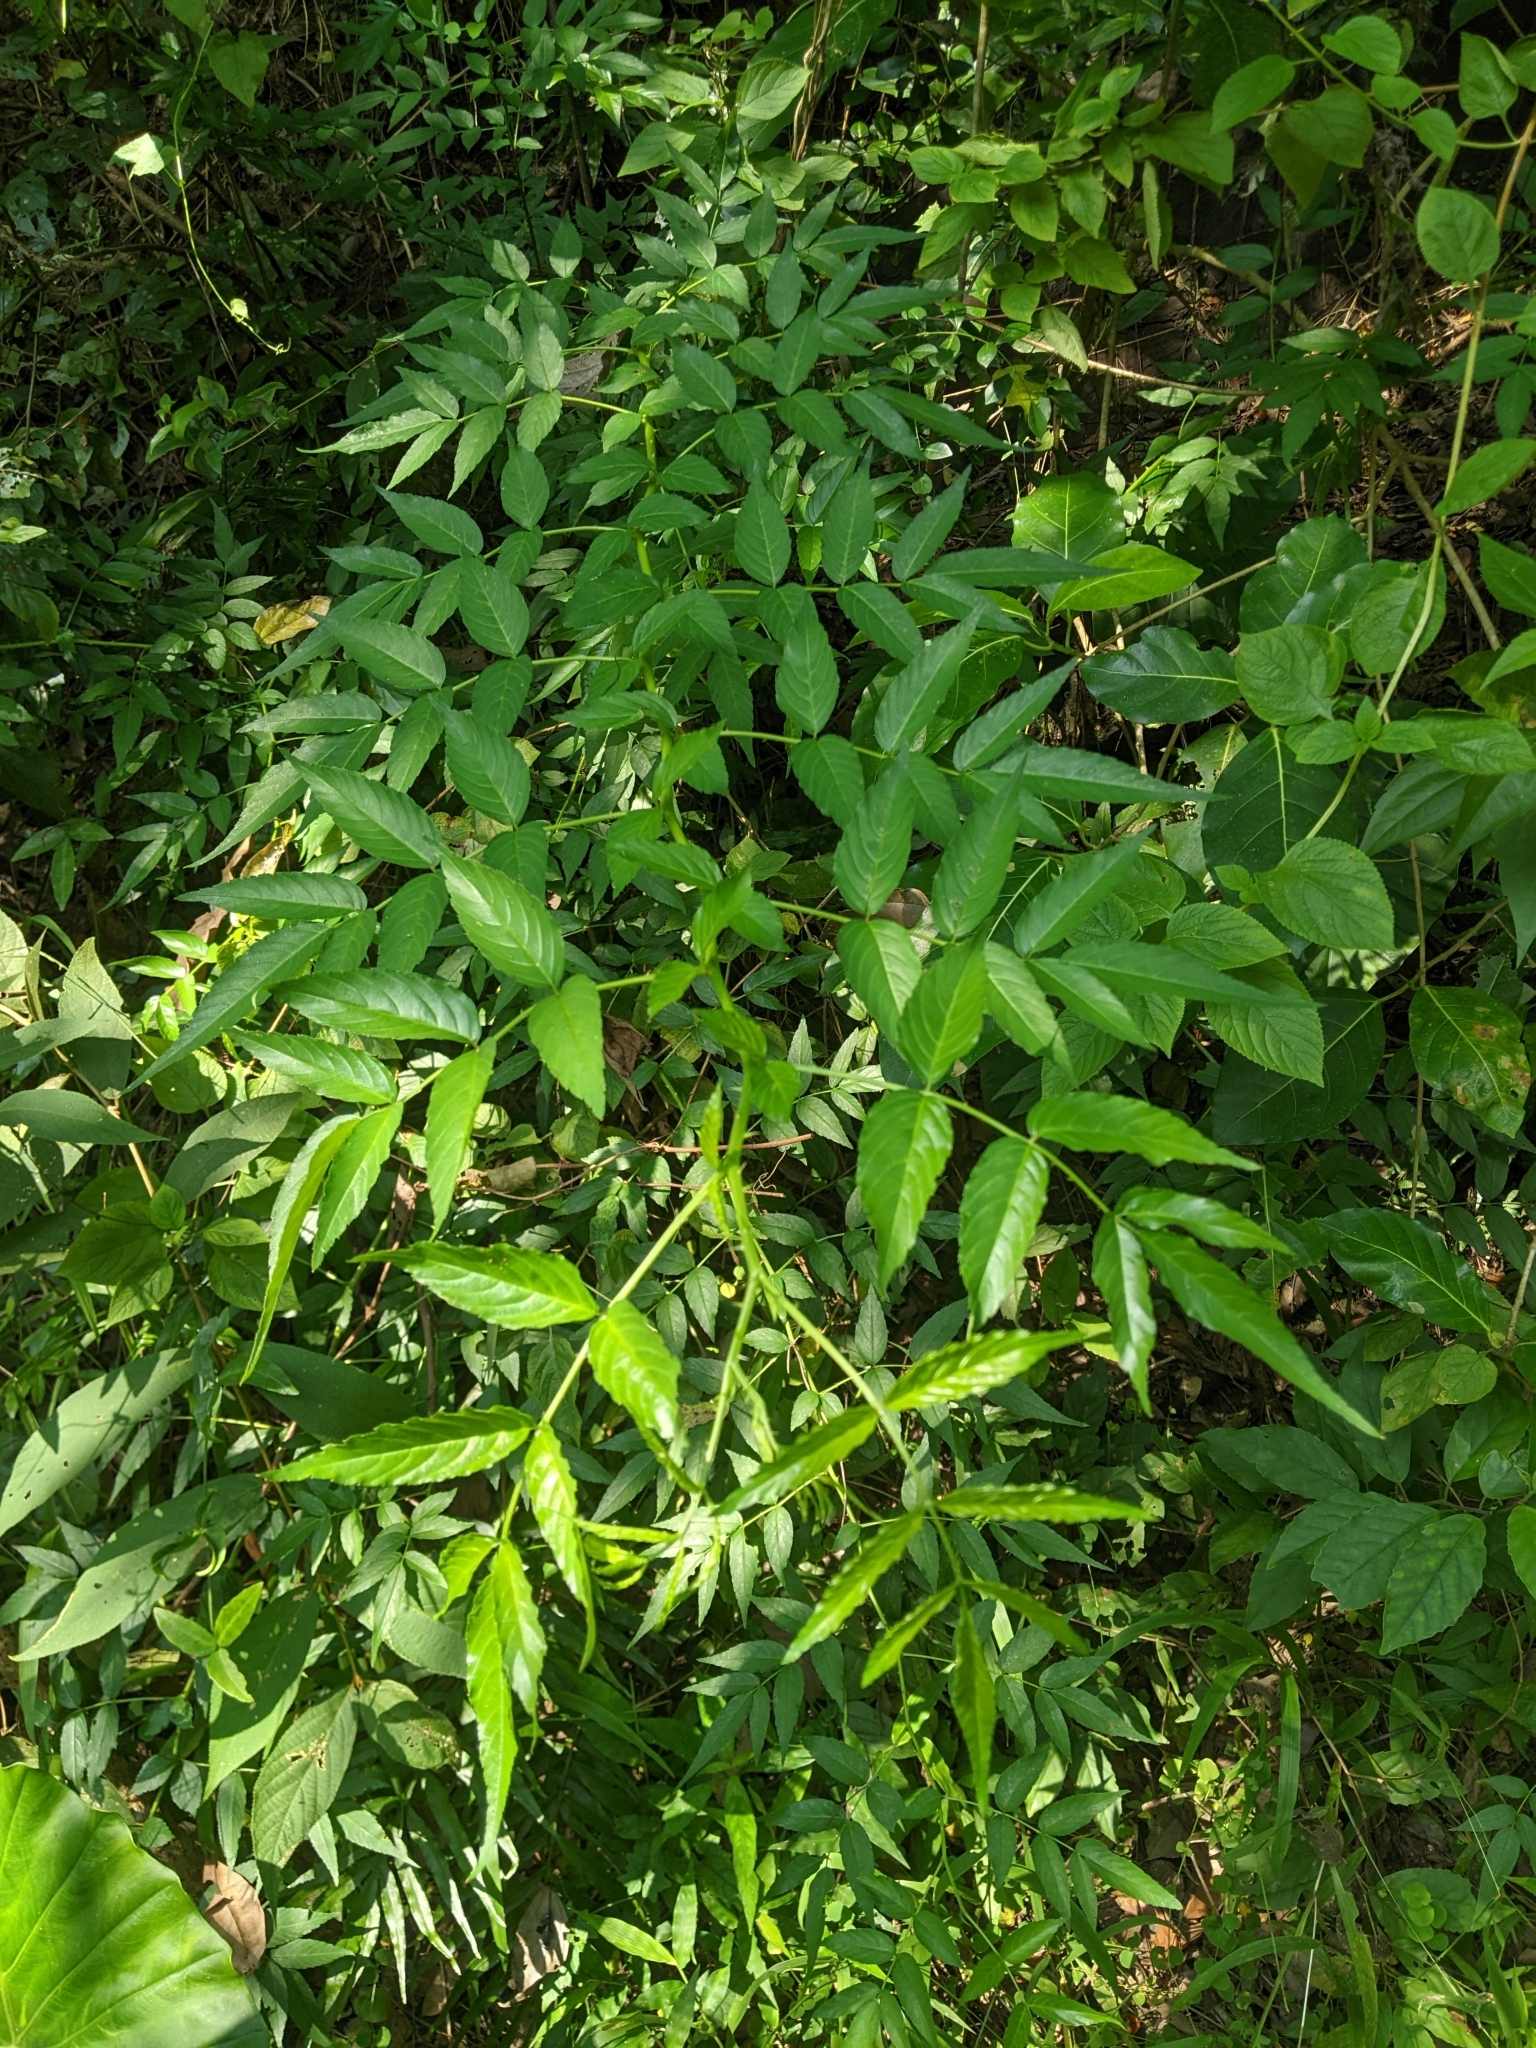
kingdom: Plantae
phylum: Tracheophyta
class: Magnoliopsida
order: Rosales
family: Rosaceae
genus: Rubus
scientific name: Rubus fraxinifolius
